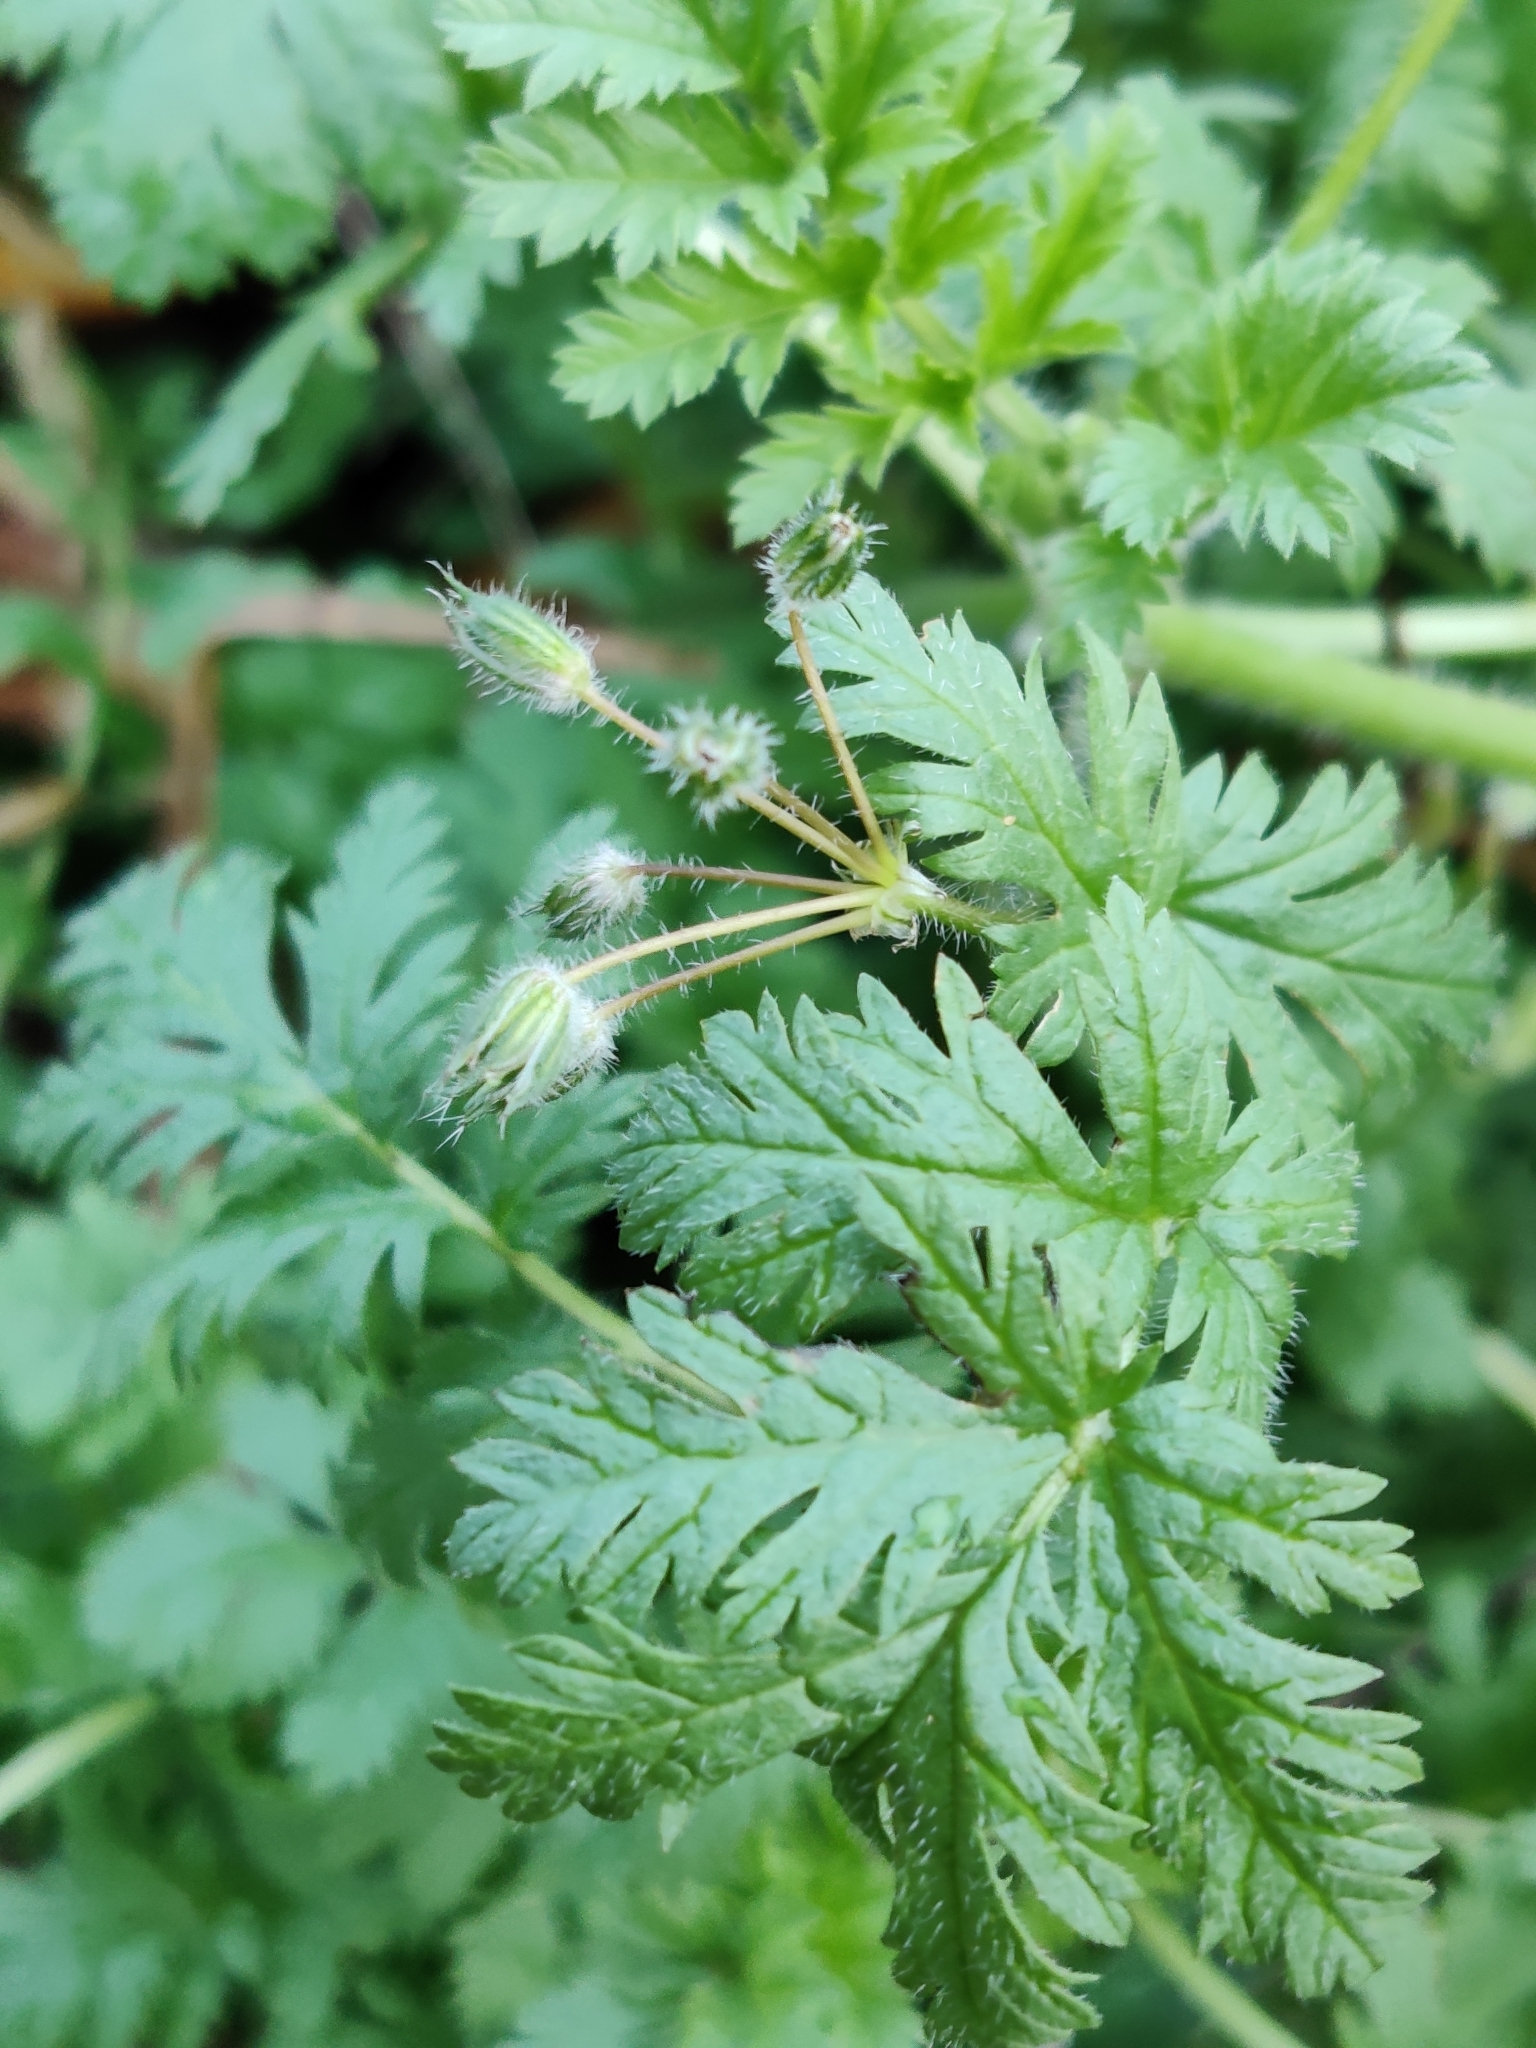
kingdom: Plantae
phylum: Tracheophyta
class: Magnoliopsida
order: Geraniales
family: Geraniaceae
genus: Erodium
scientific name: Erodium cicutarium
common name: Common stork's-bill
